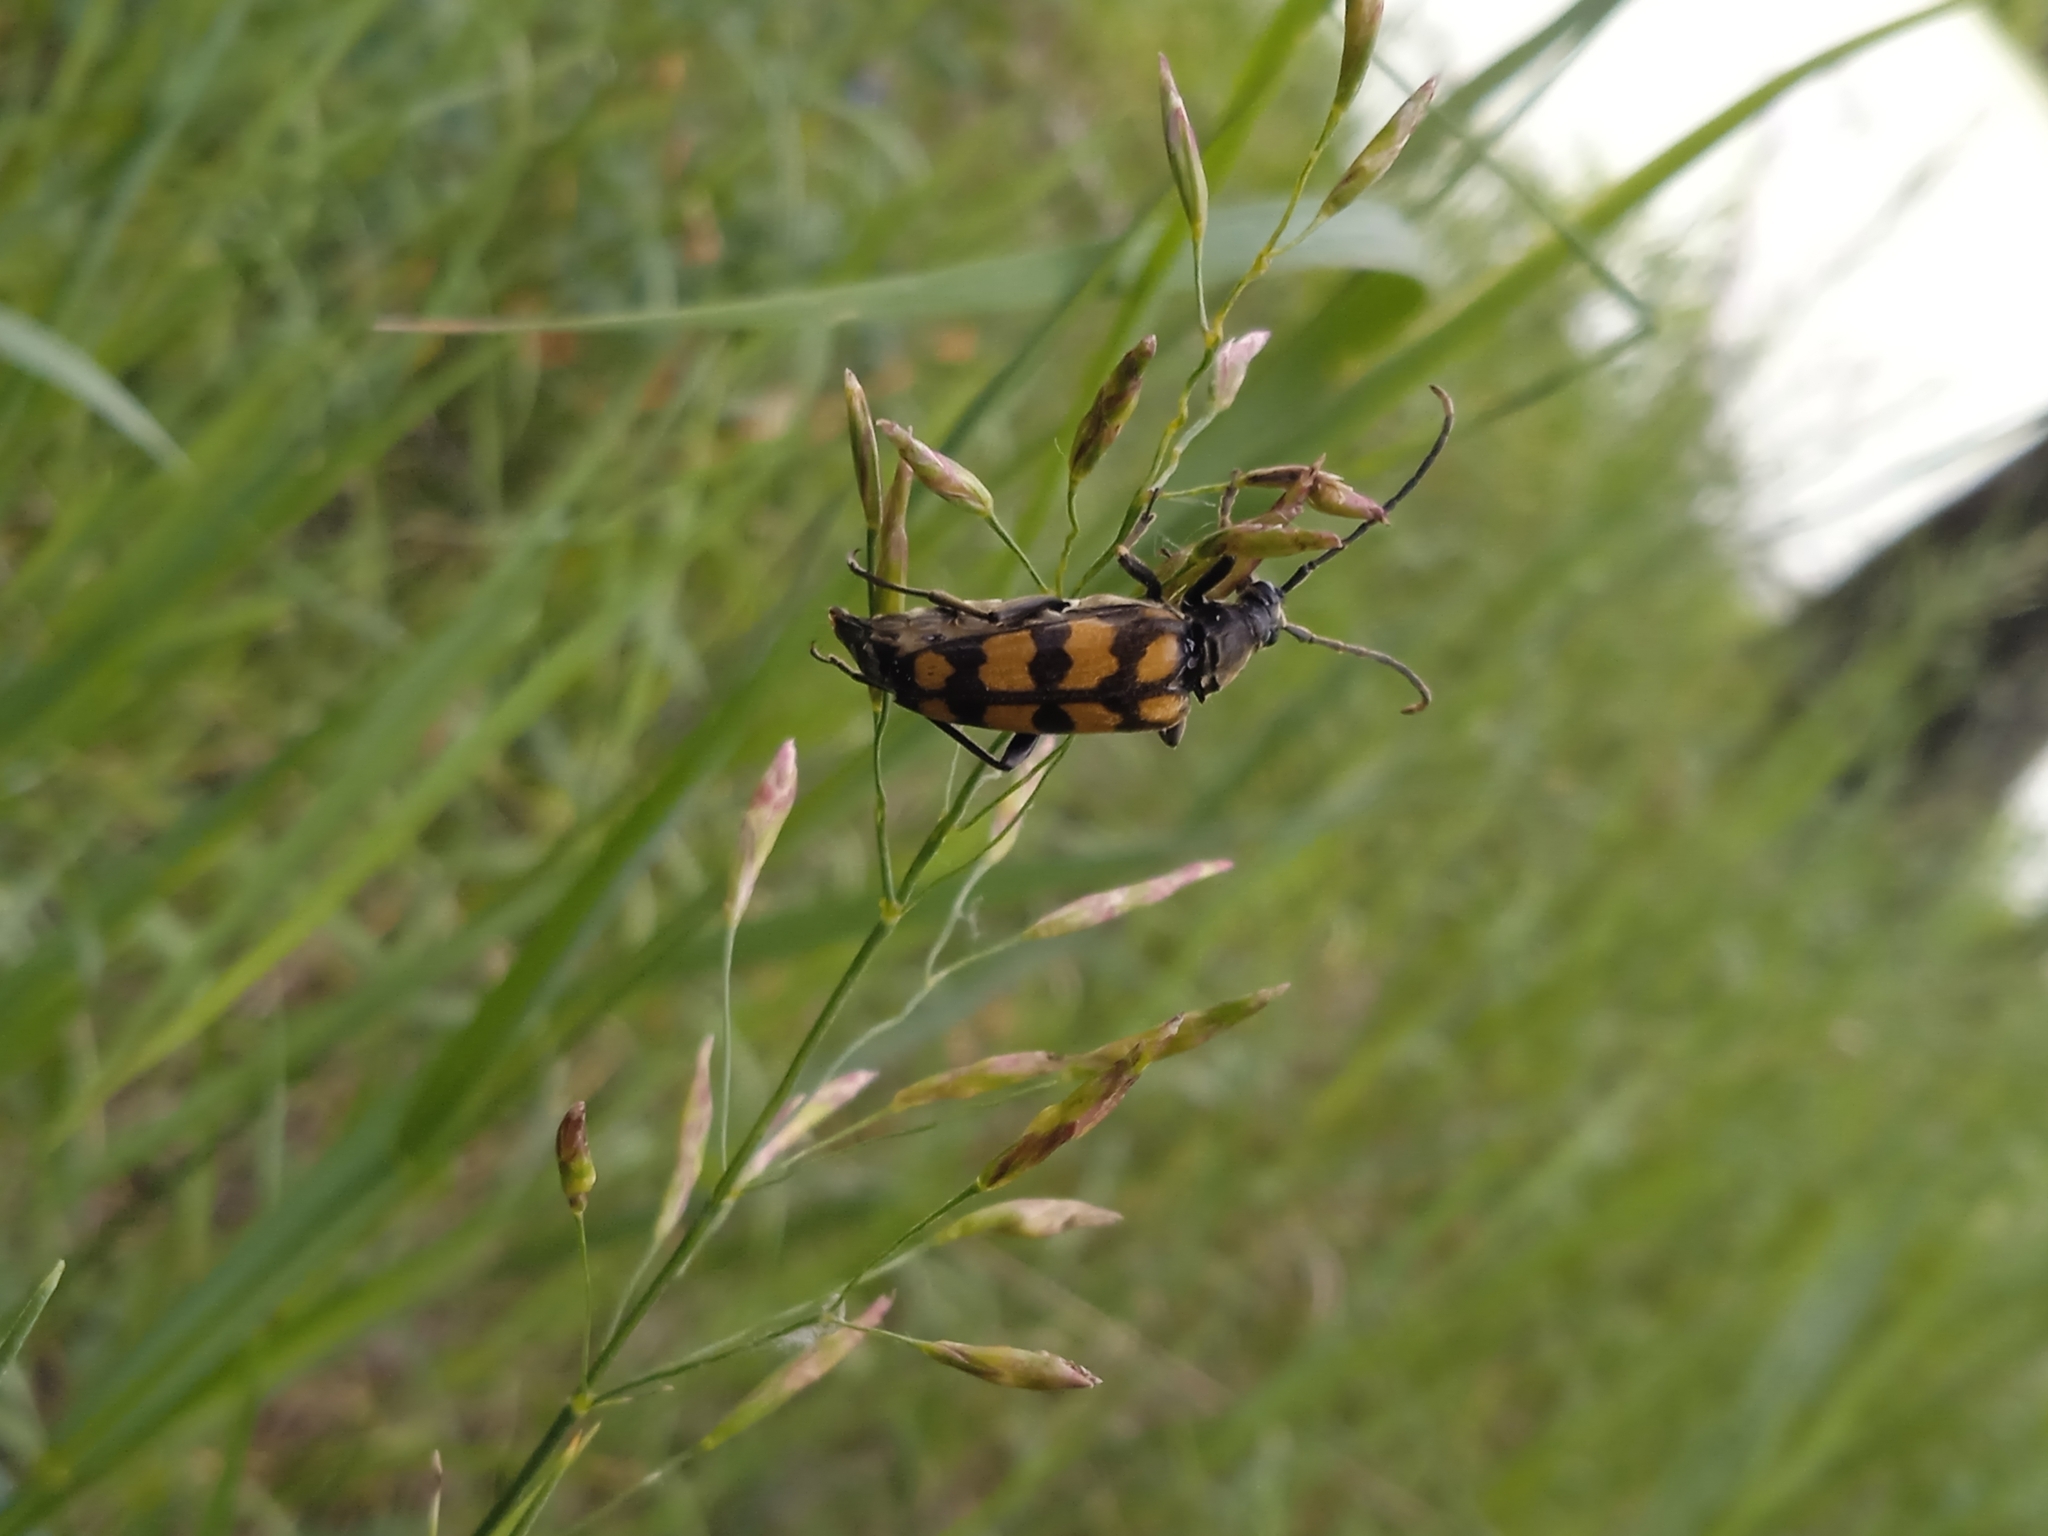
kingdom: Animalia
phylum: Arthropoda
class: Insecta
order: Coleoptera
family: Cerambycidae
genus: Leptura
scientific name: Leptura quadrifasciata
